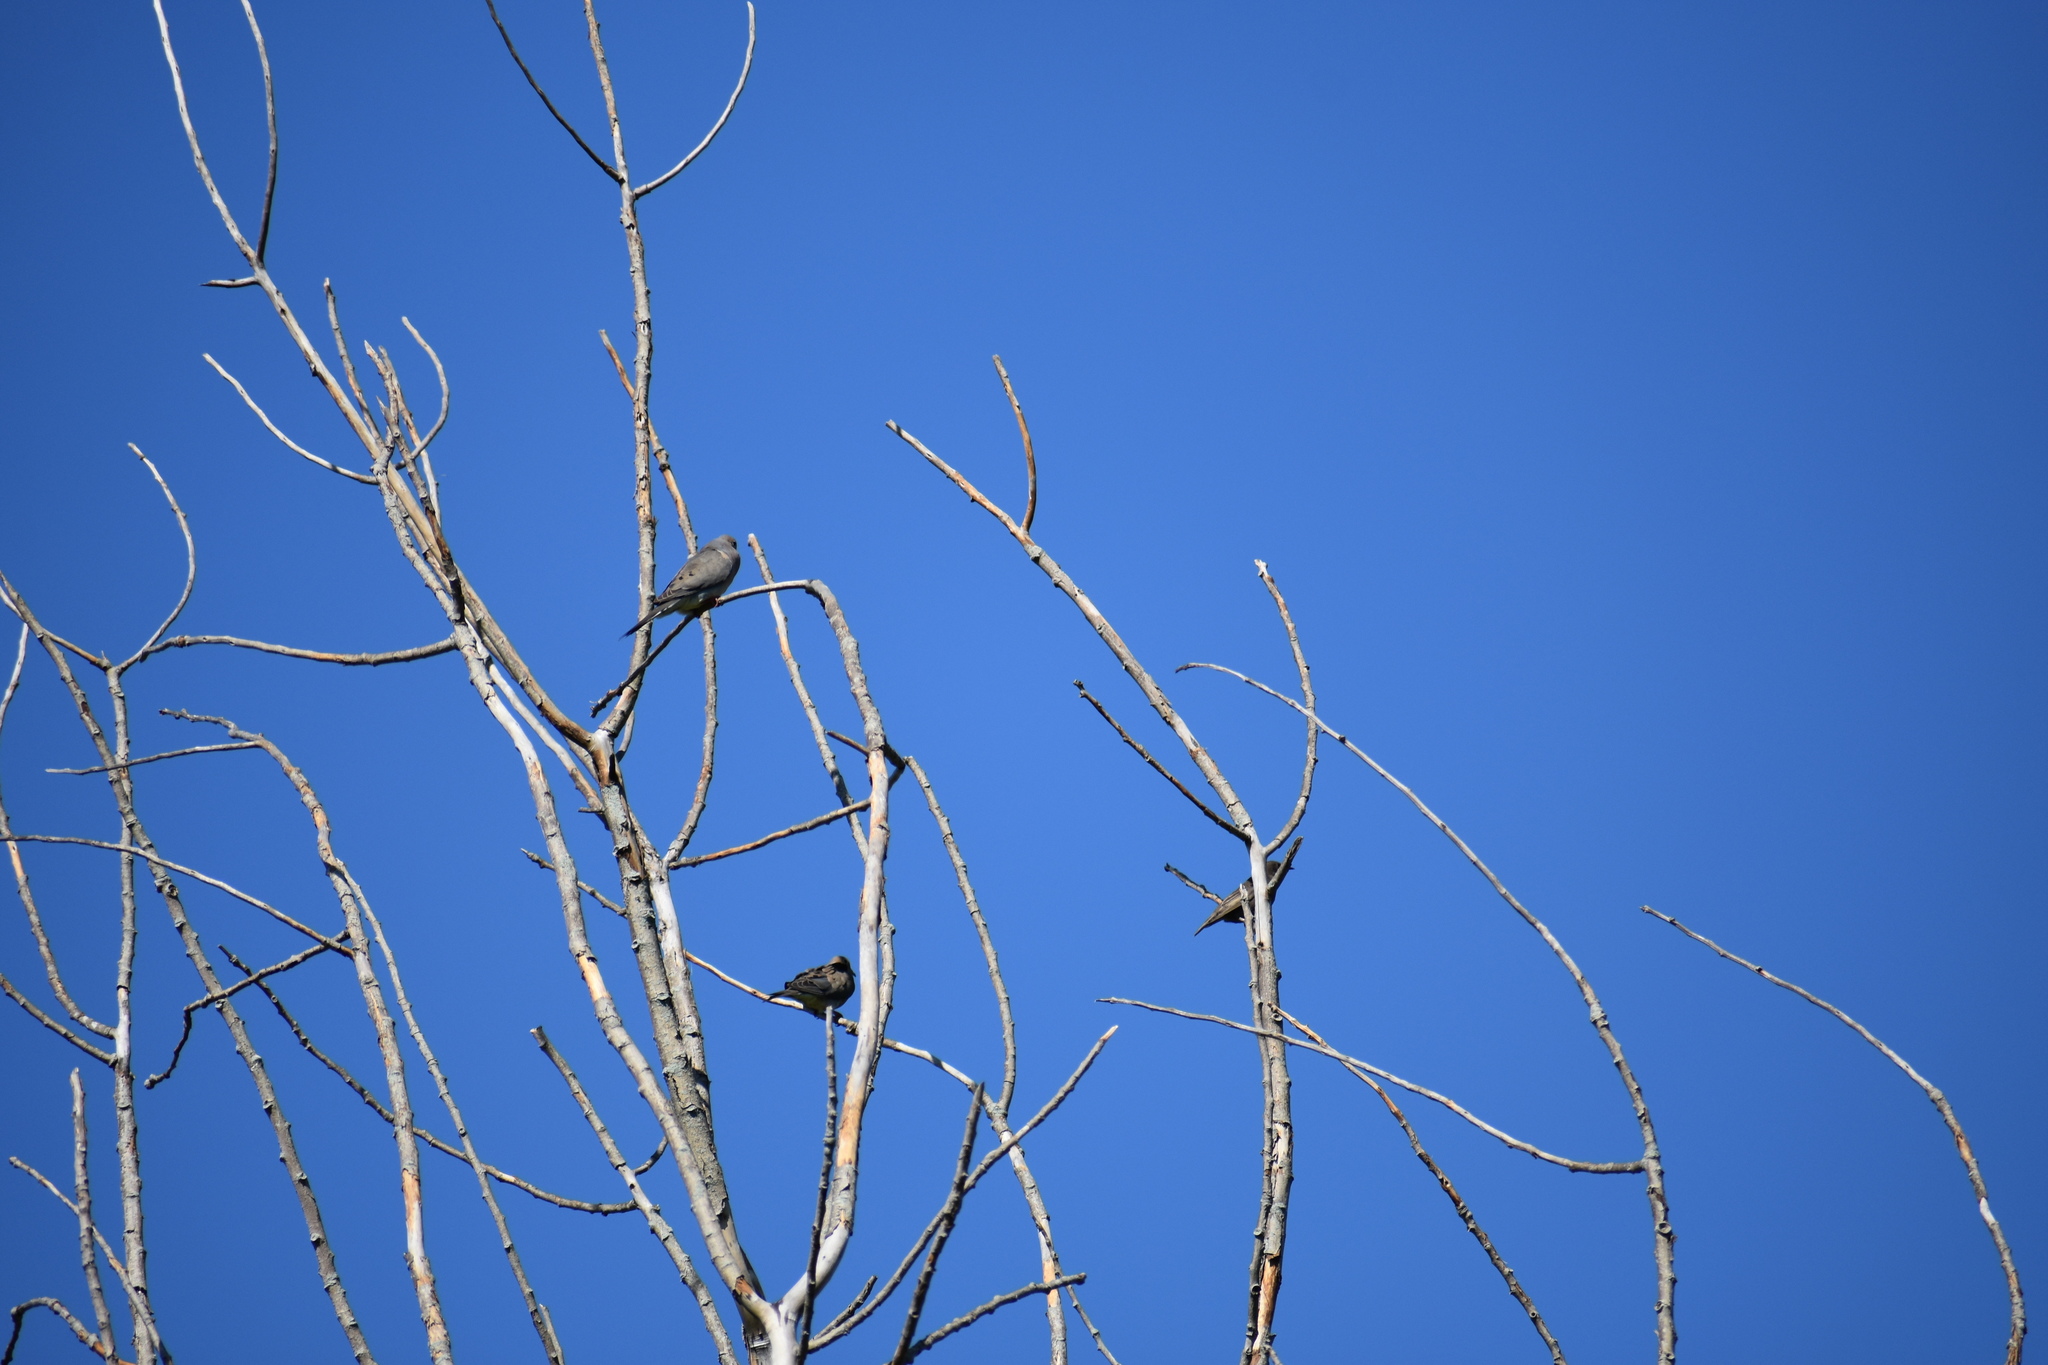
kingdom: Animalia
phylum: Chordata
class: Aves
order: Passeriformes
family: Sturnidae
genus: Sturnus
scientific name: Sturnus vulgaris
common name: Common starling
